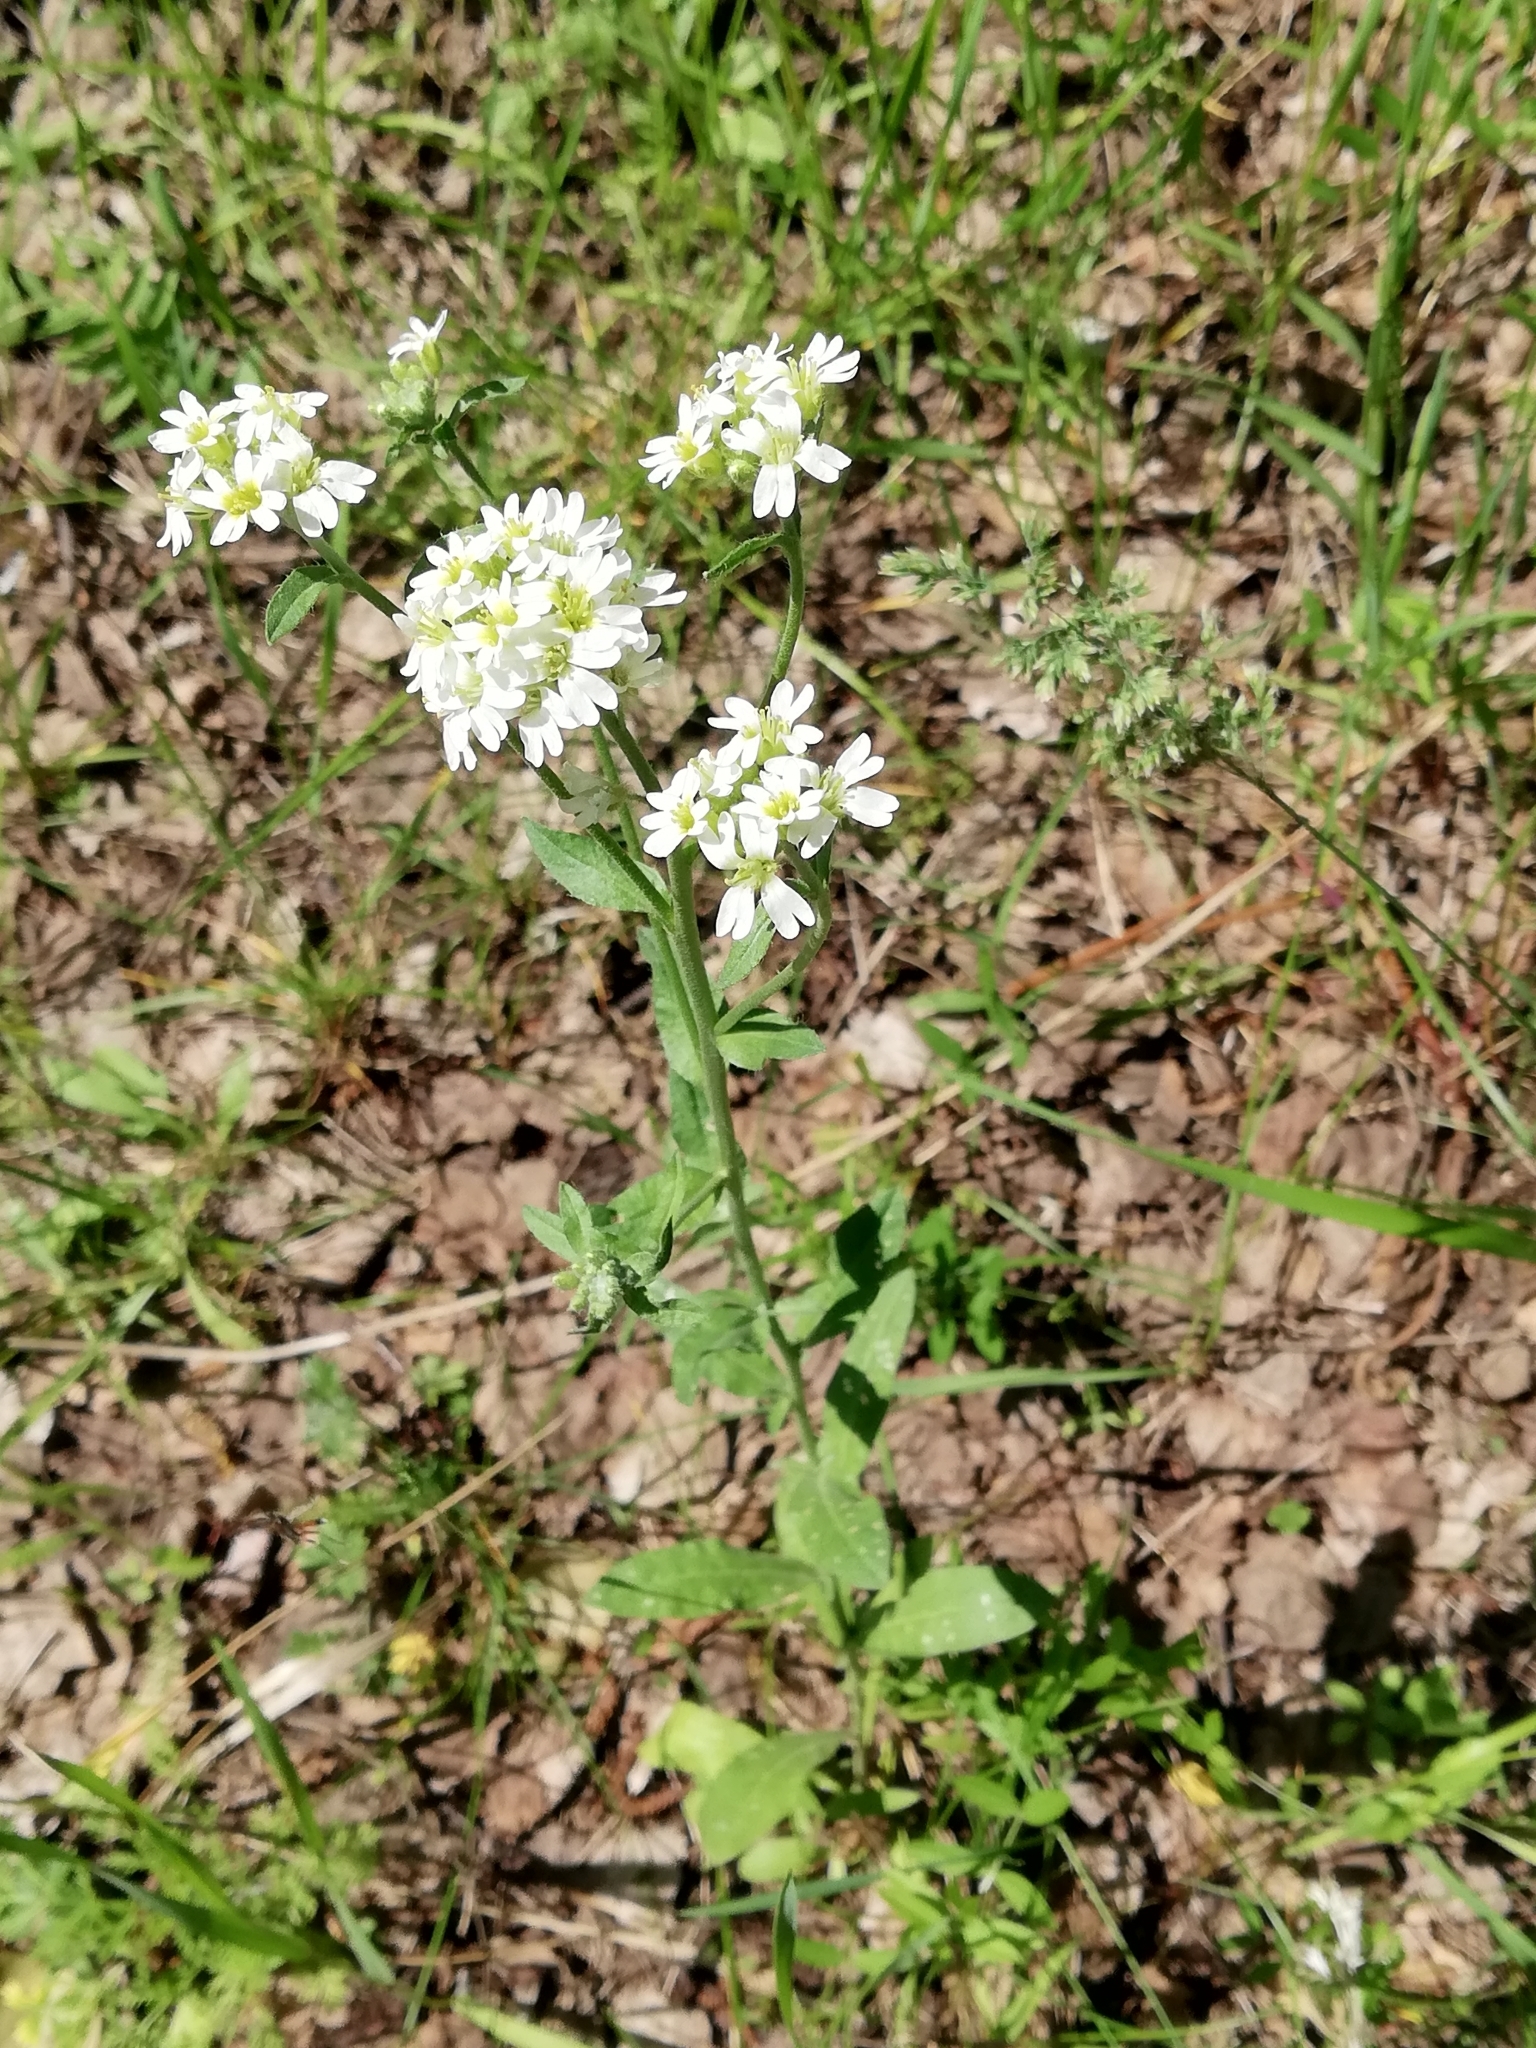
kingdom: Plantae
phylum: Tracheophyta
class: Magnoliopsida
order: Brassicales
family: Brassicaceae
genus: Berteroa
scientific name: Berteroa incana
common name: Hoary alison
